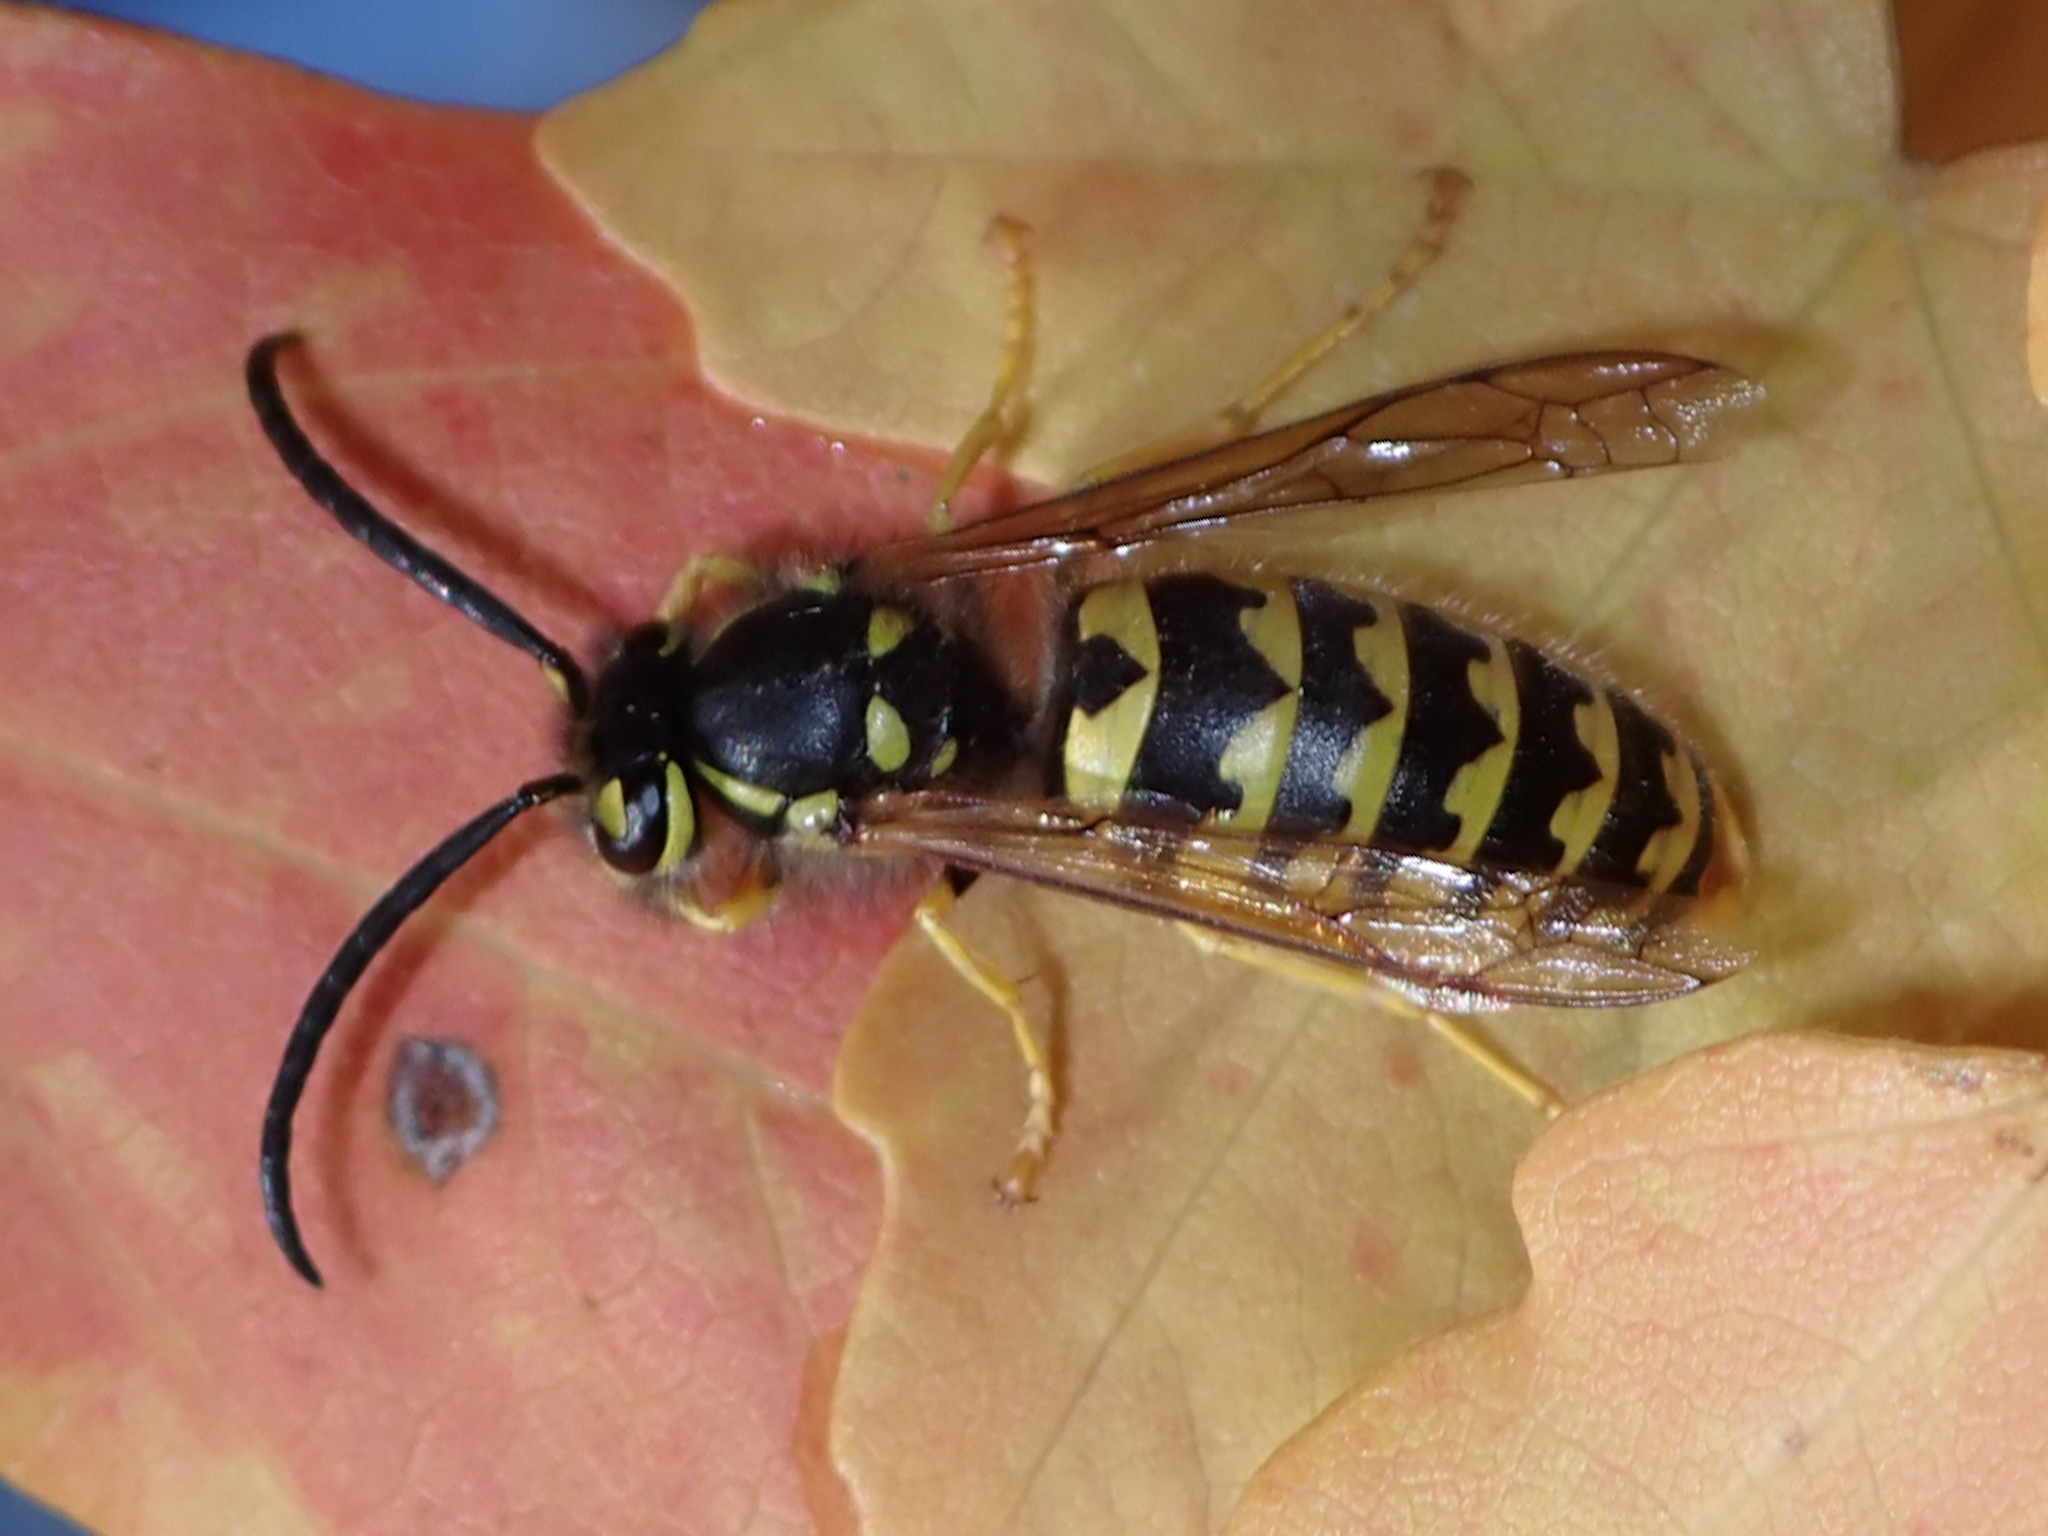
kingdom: Animalia
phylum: Arthropoda
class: Insecta
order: Hymenoptera
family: Vespidae
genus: Vespula
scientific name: Vespula pensylvanica
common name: Western yellowjacket
